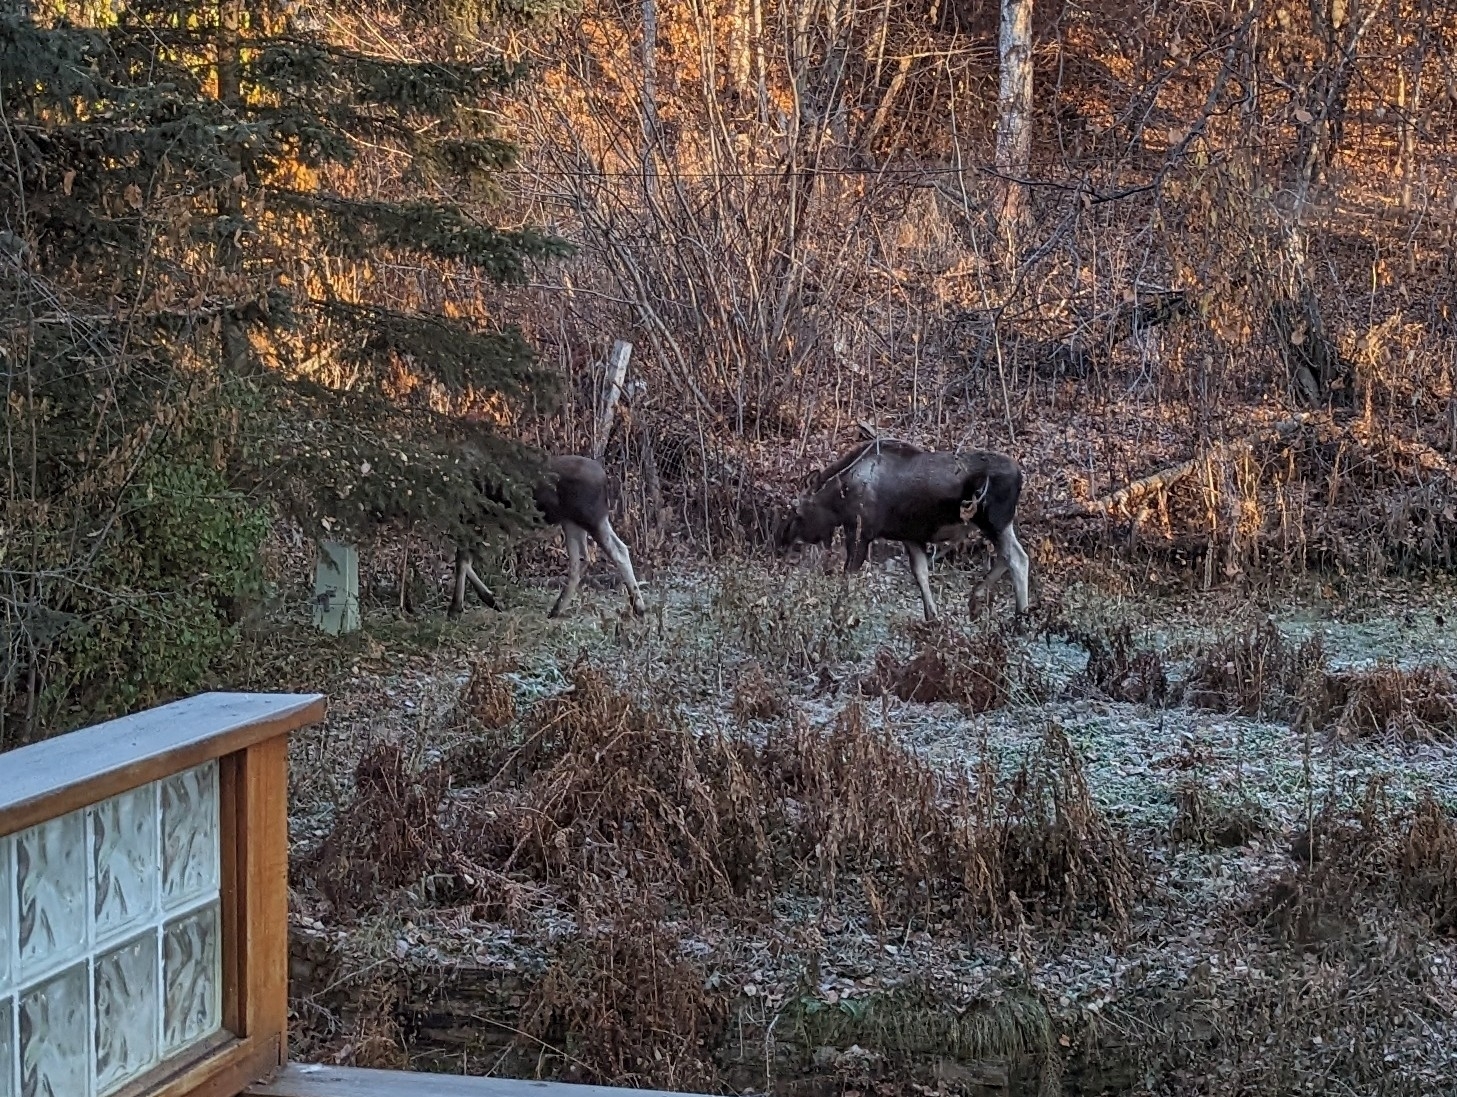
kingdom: Animalia
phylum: Chordata
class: Mammalia
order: Artiodactyla
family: Cervidae
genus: Alces
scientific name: Alces alces
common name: Moose
